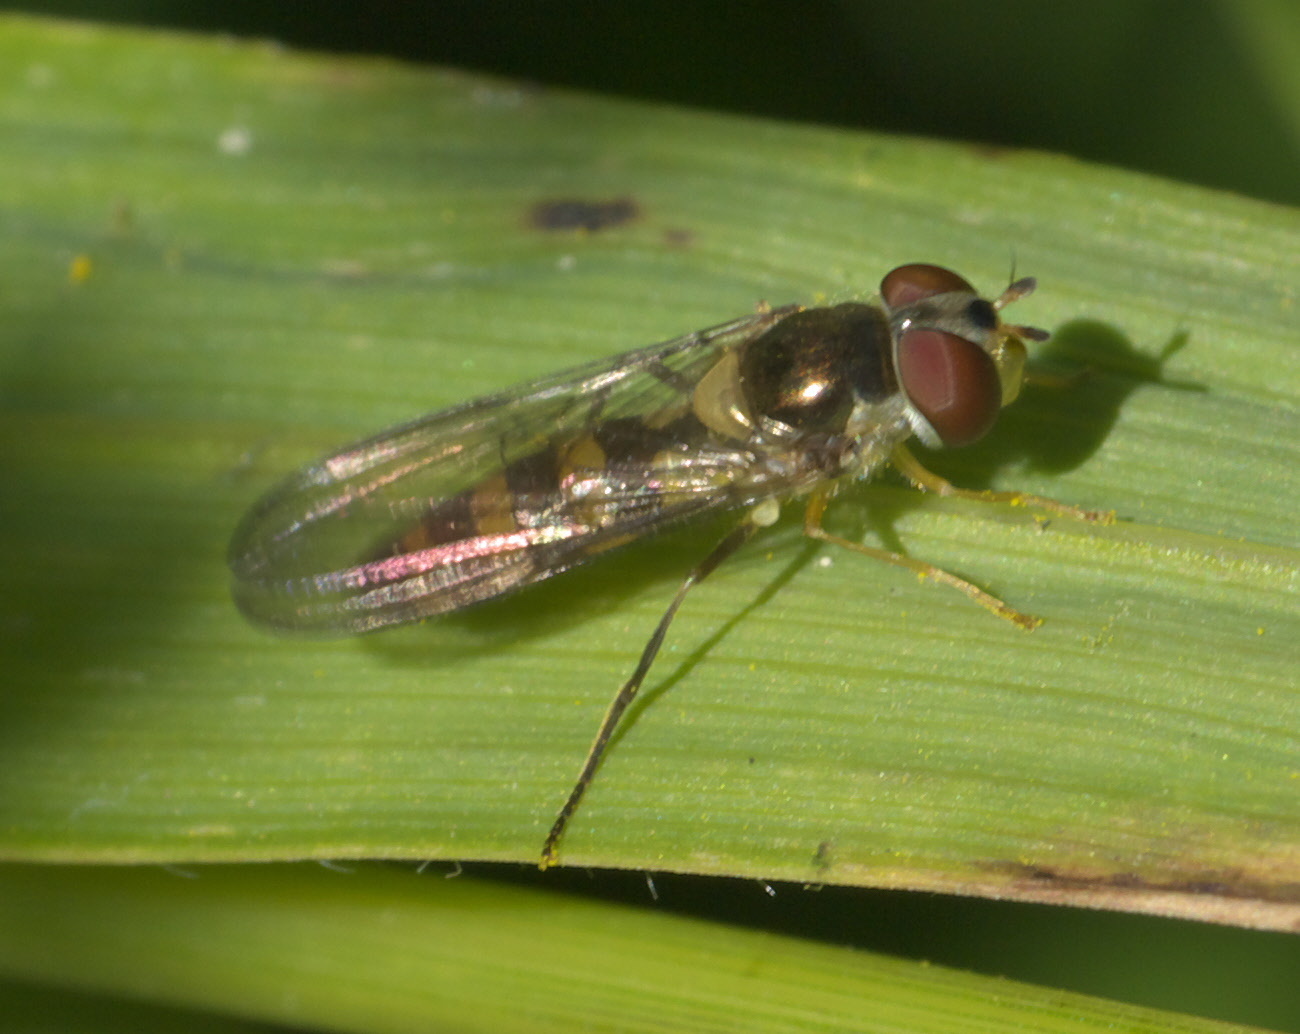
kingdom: Animalia
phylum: Arthropoda
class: Insecta
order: Diptera
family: Syrphidae
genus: Meliscaeva
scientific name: Meliscaeva cinctella
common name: American thintail fly
